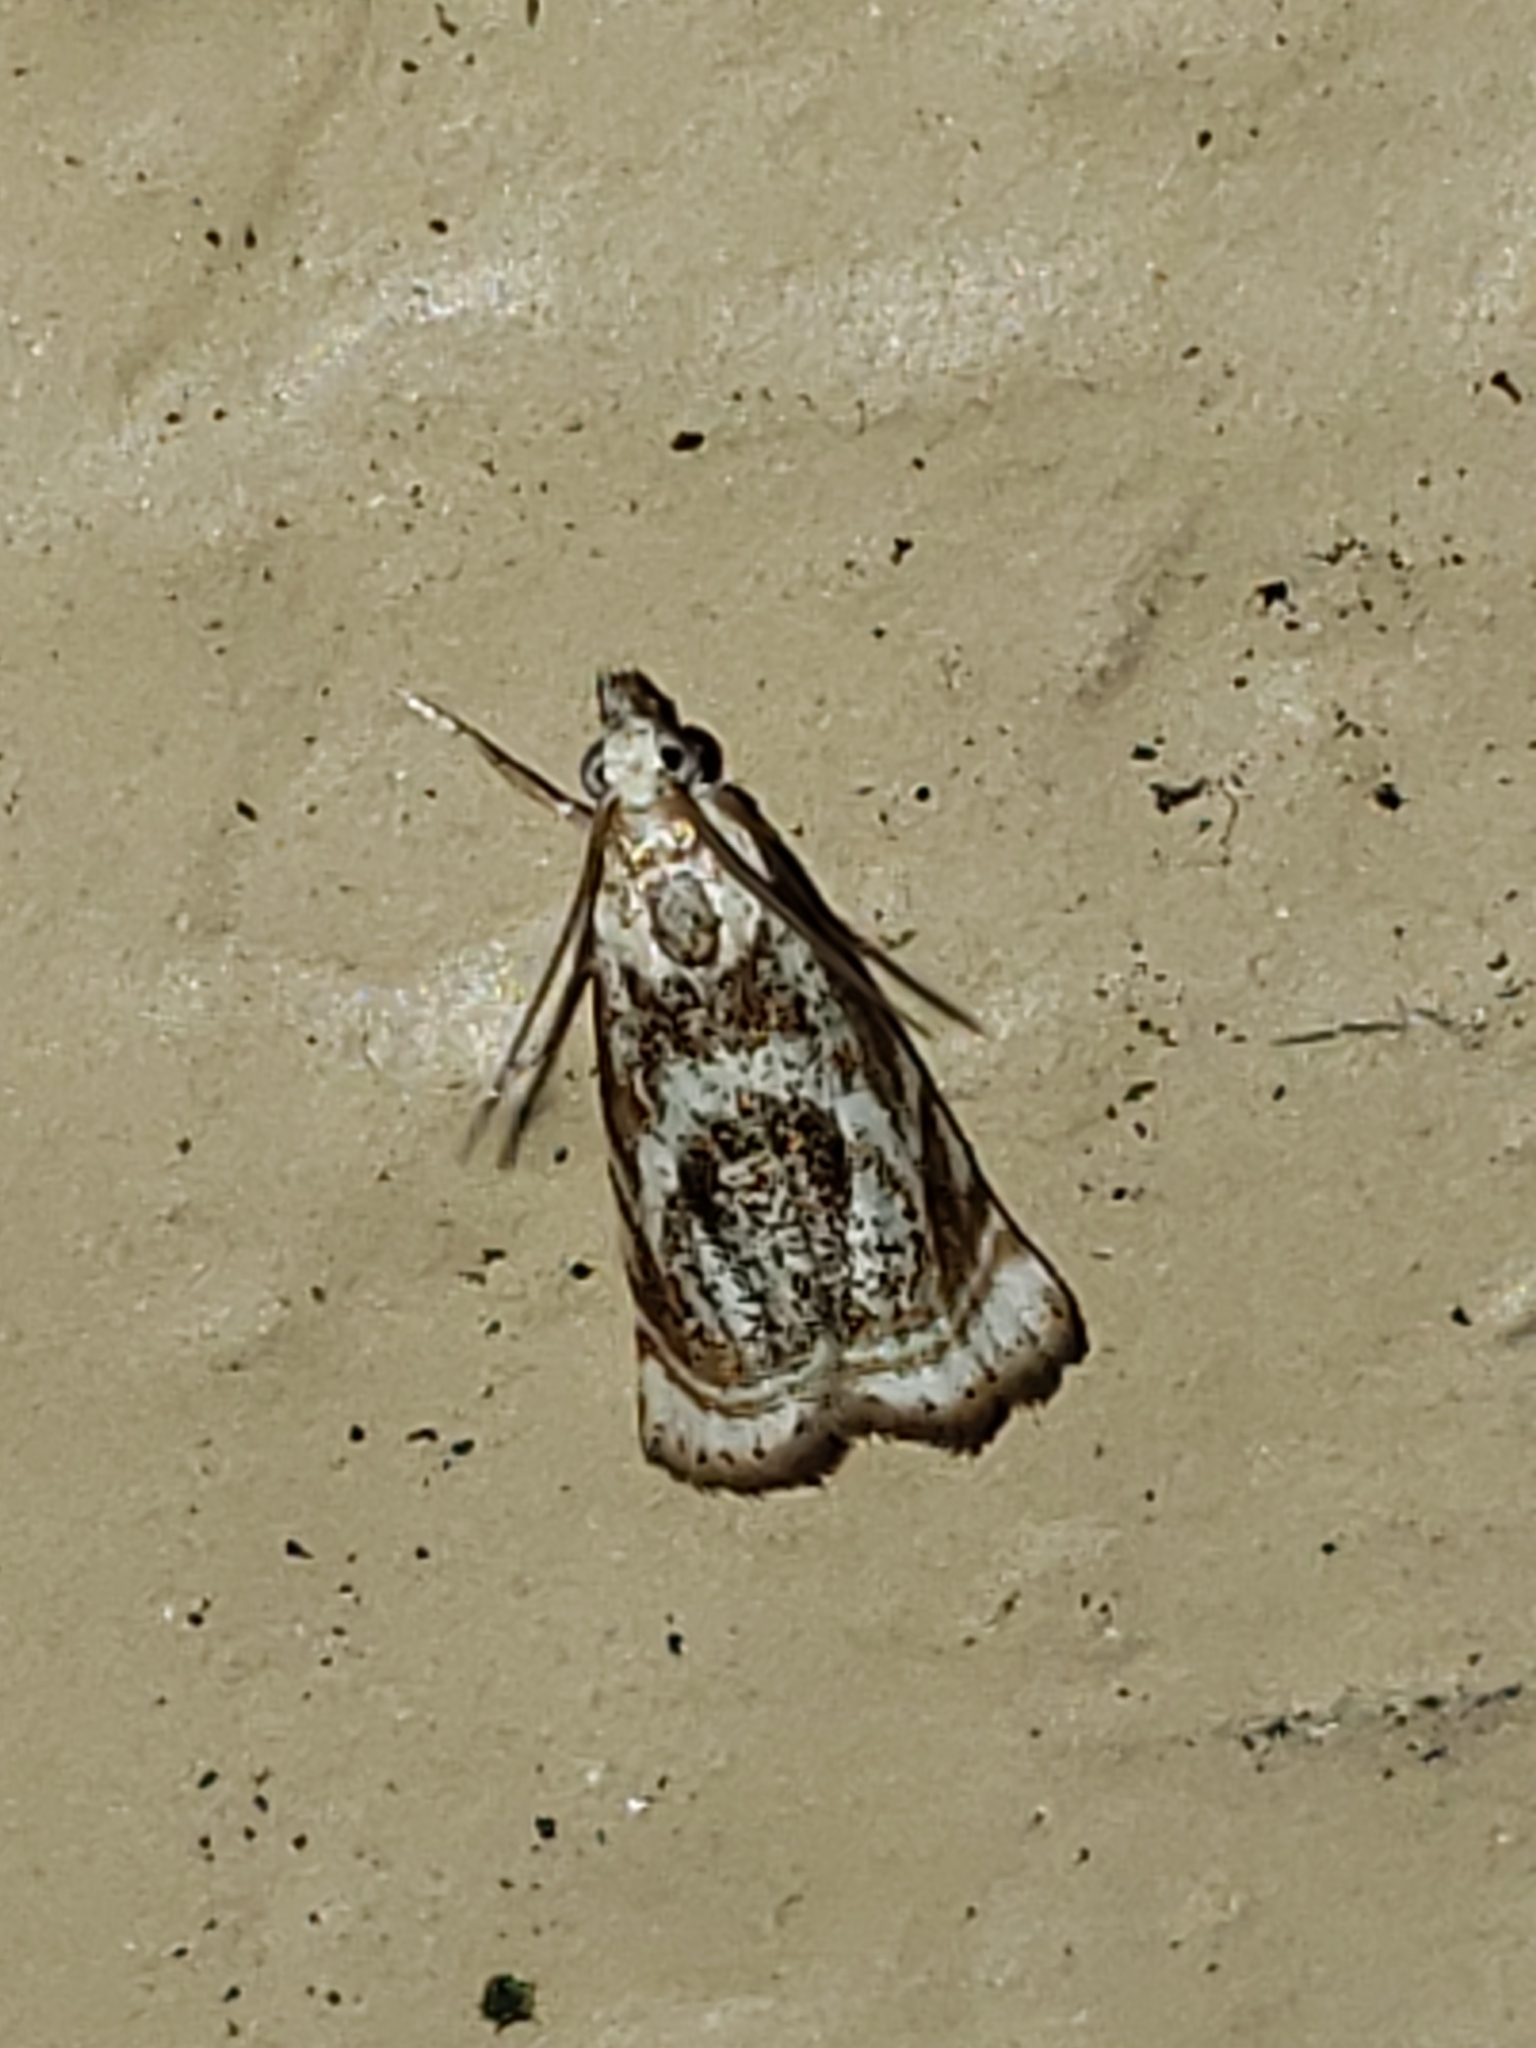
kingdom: Animalia
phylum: Arthropoda
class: Insecta
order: Lepidoptera
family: Crambidae
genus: Microcrambus
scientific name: Microcrambus elegans
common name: Elegant grass-veneer
